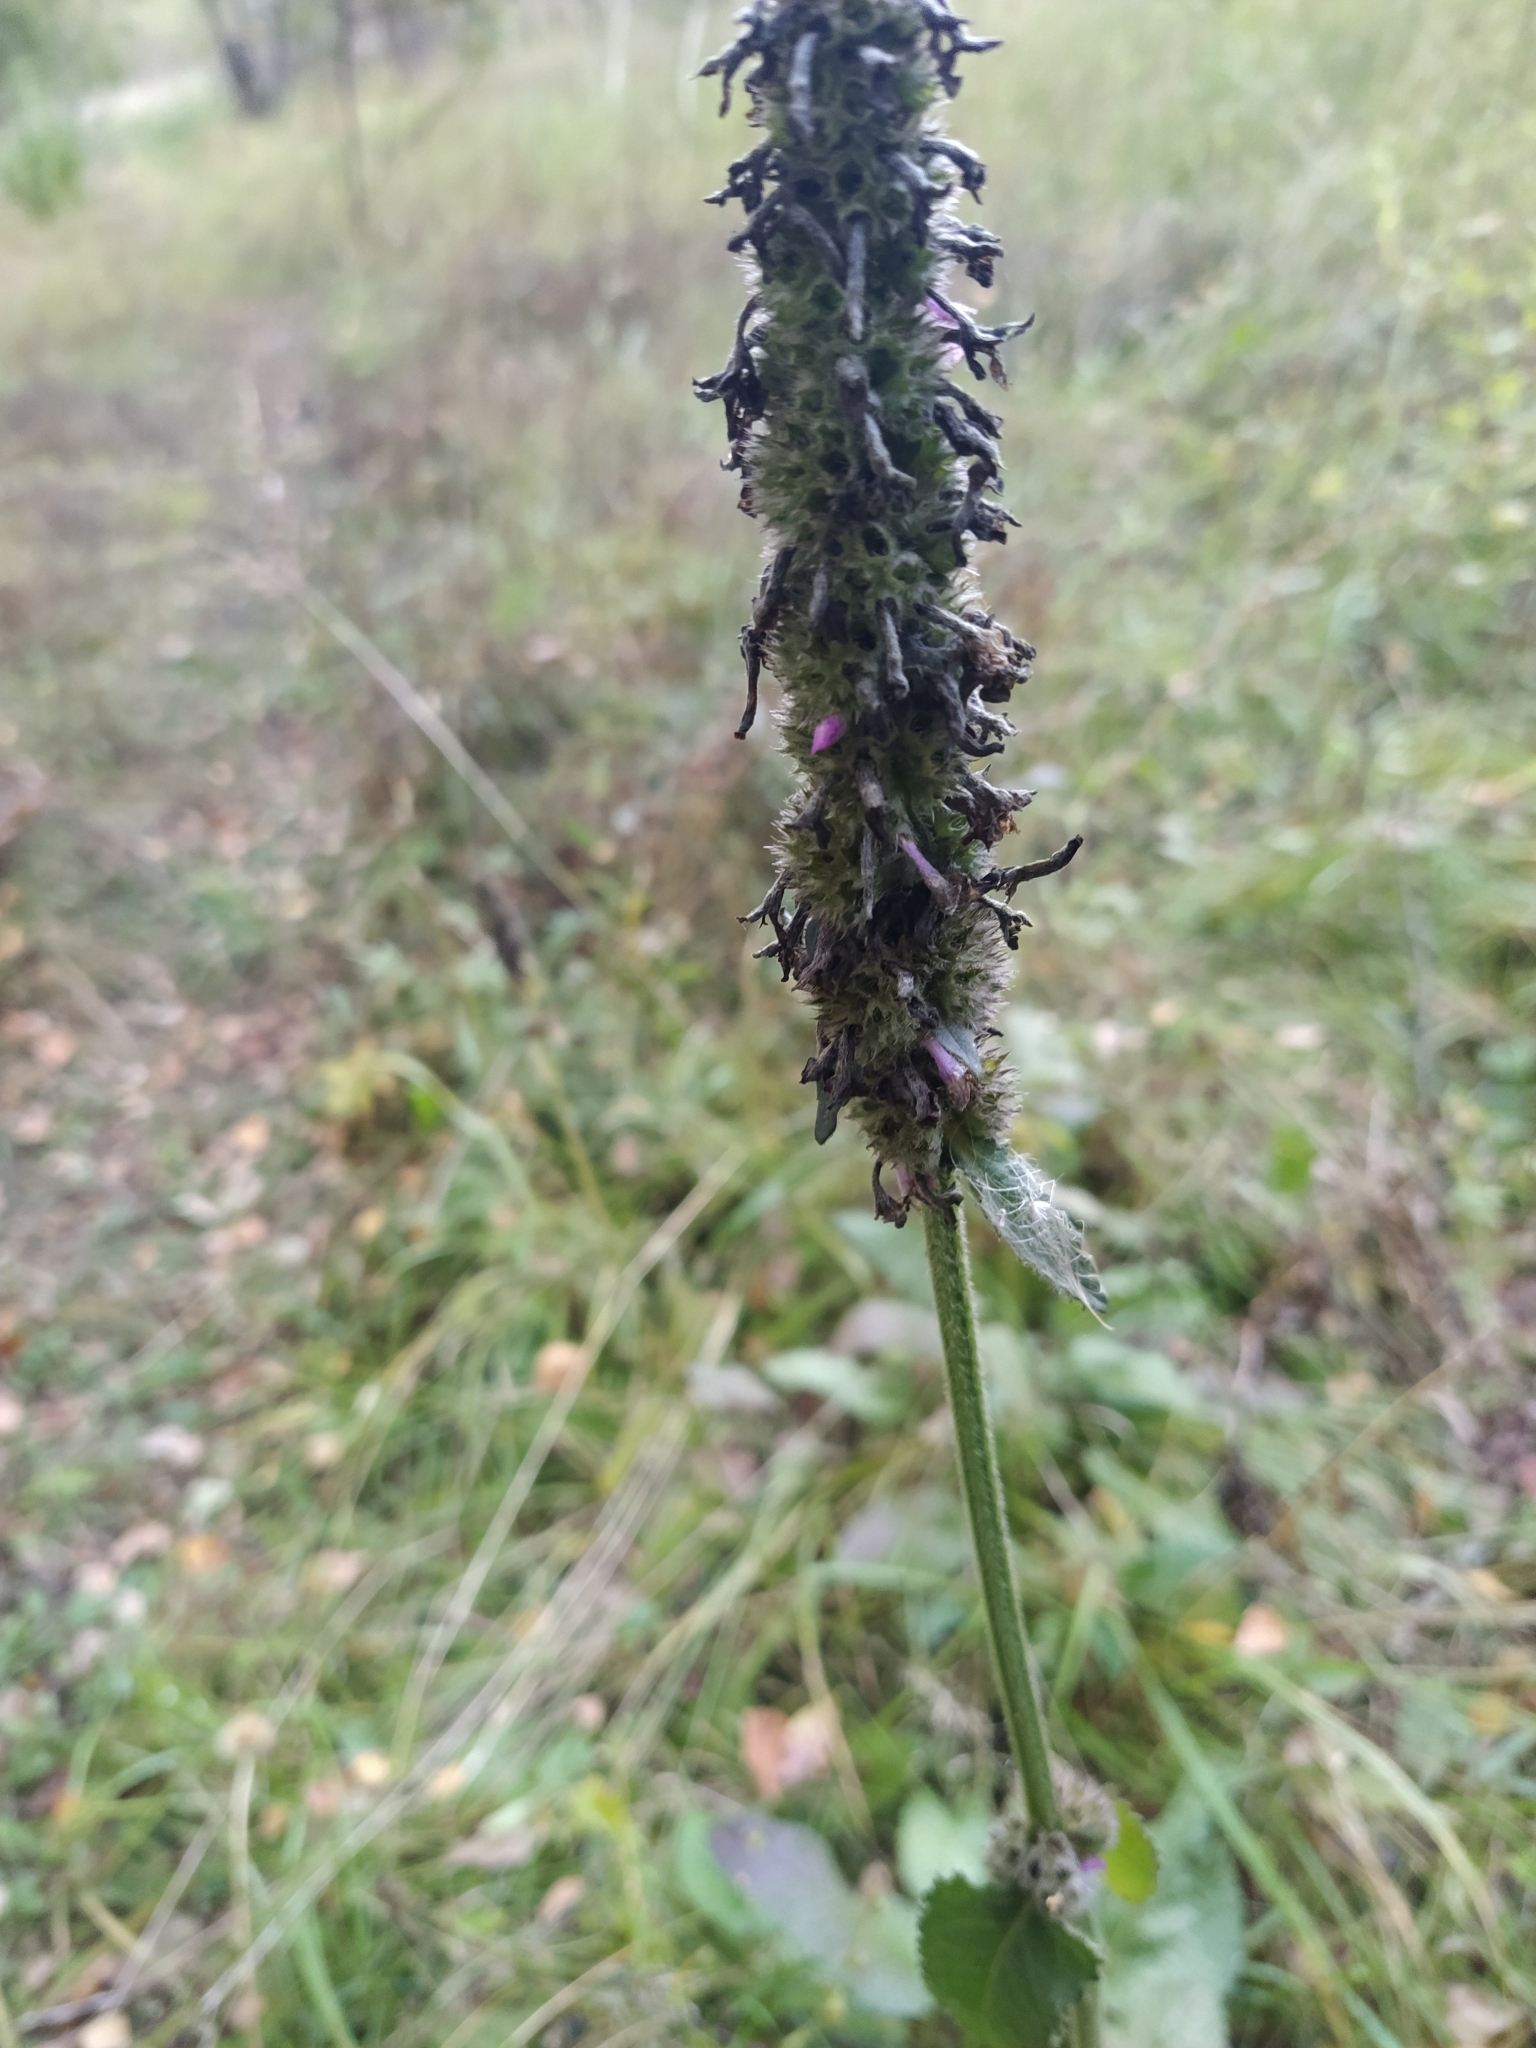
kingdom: Plantae
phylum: Tracheophyta
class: Magnoliopsida
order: Lamiales
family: Lamiaceae
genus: Betonica
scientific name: Betonica officinalis
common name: Bishop's-wort
